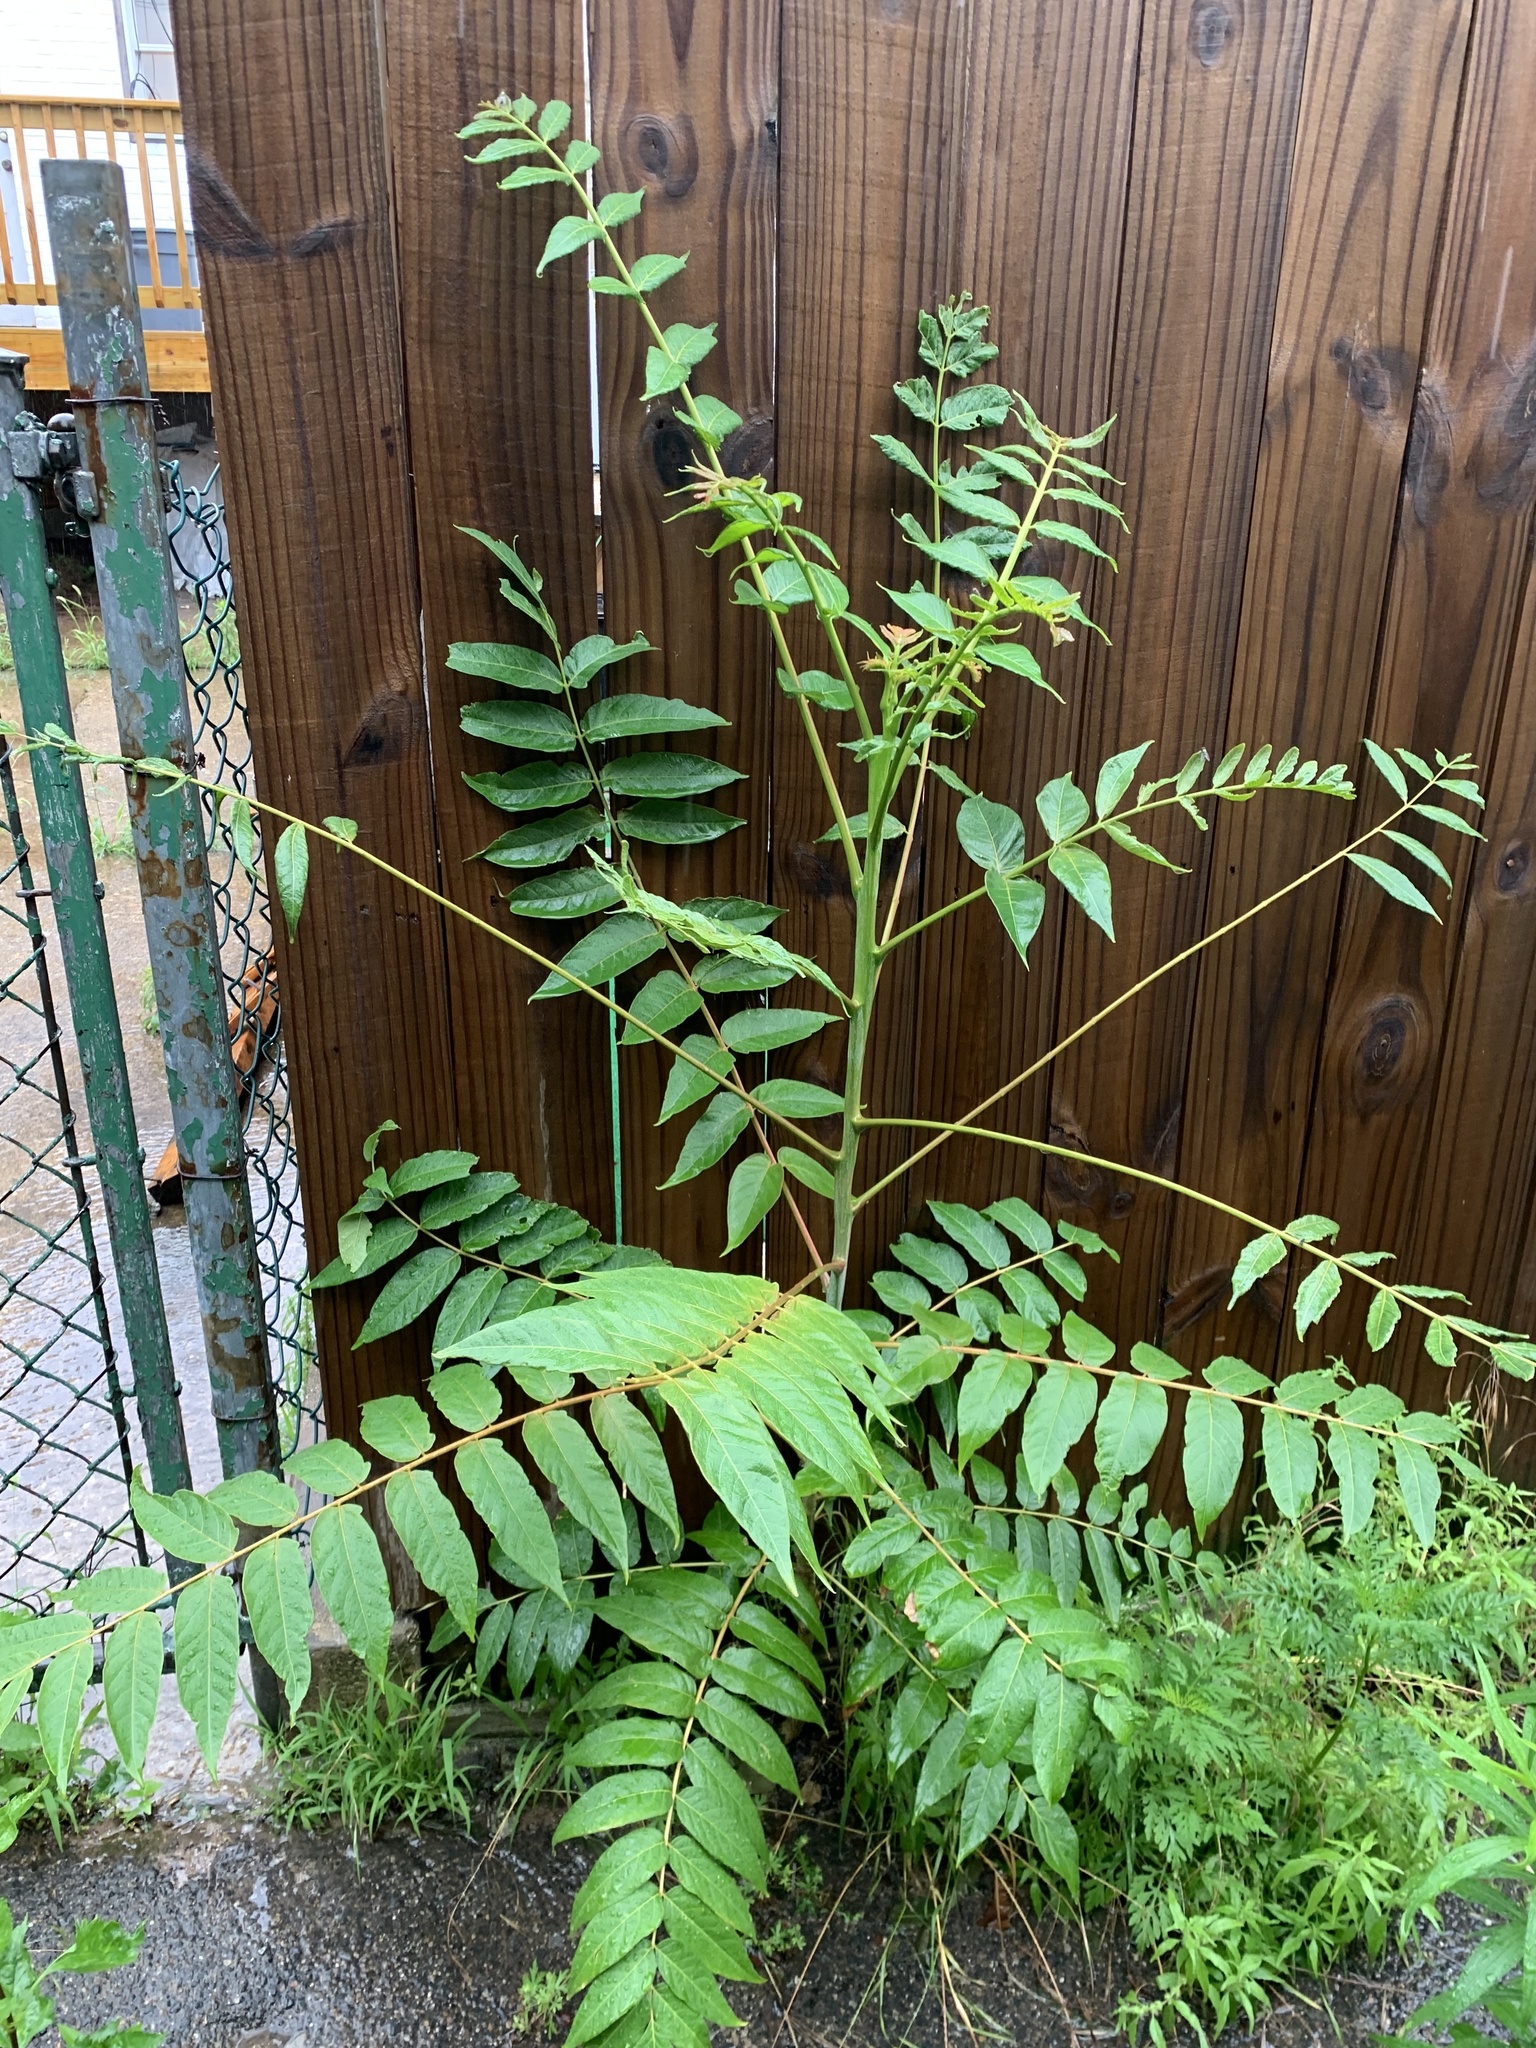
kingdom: Plantae
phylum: Tracheophyta
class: Magnoliopsida
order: Sapindales
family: Simaroubaceae
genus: Ailanthus
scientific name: Ailanthus altissima
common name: Tree-of-heaven
